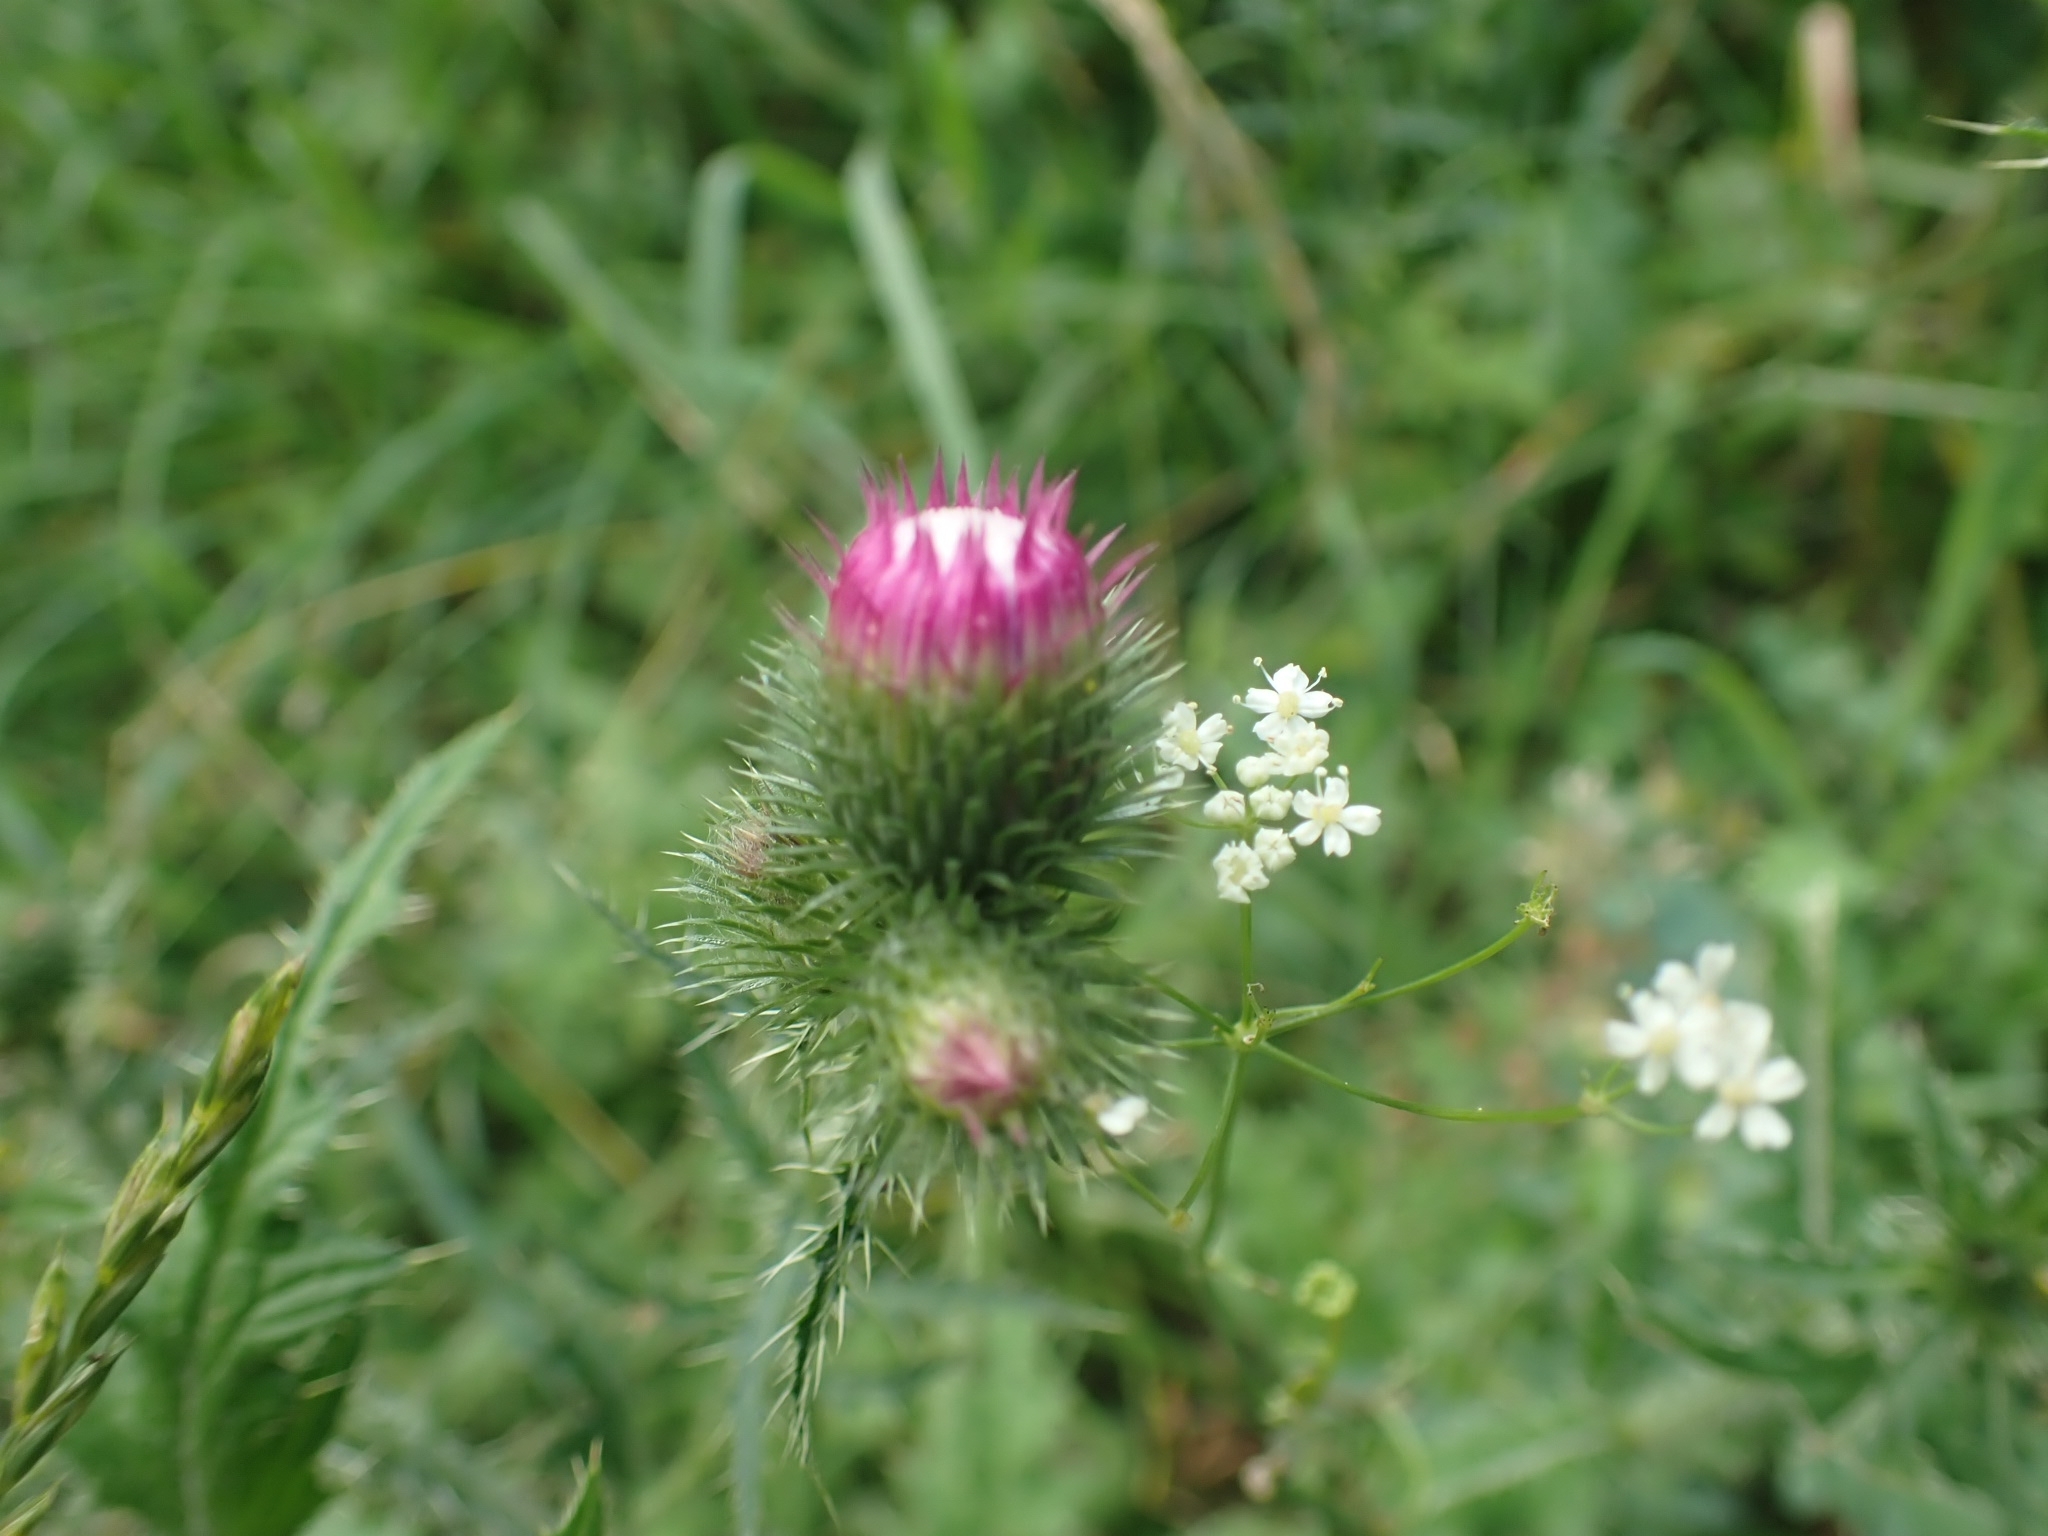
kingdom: Plantae
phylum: Tracheophyta
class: Magnoliopsida
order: Asterales
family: Asteraceae
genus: Carduus
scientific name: Carduus crispus
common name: Welted thistle
